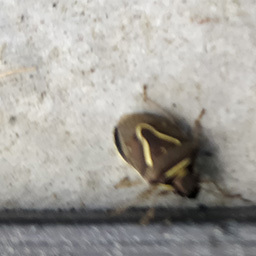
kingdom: Animalia
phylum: Arthropoda
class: Insecta
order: Hemiptera
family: Pentatomidae
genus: Mormidea
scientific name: Mormidea lugens
